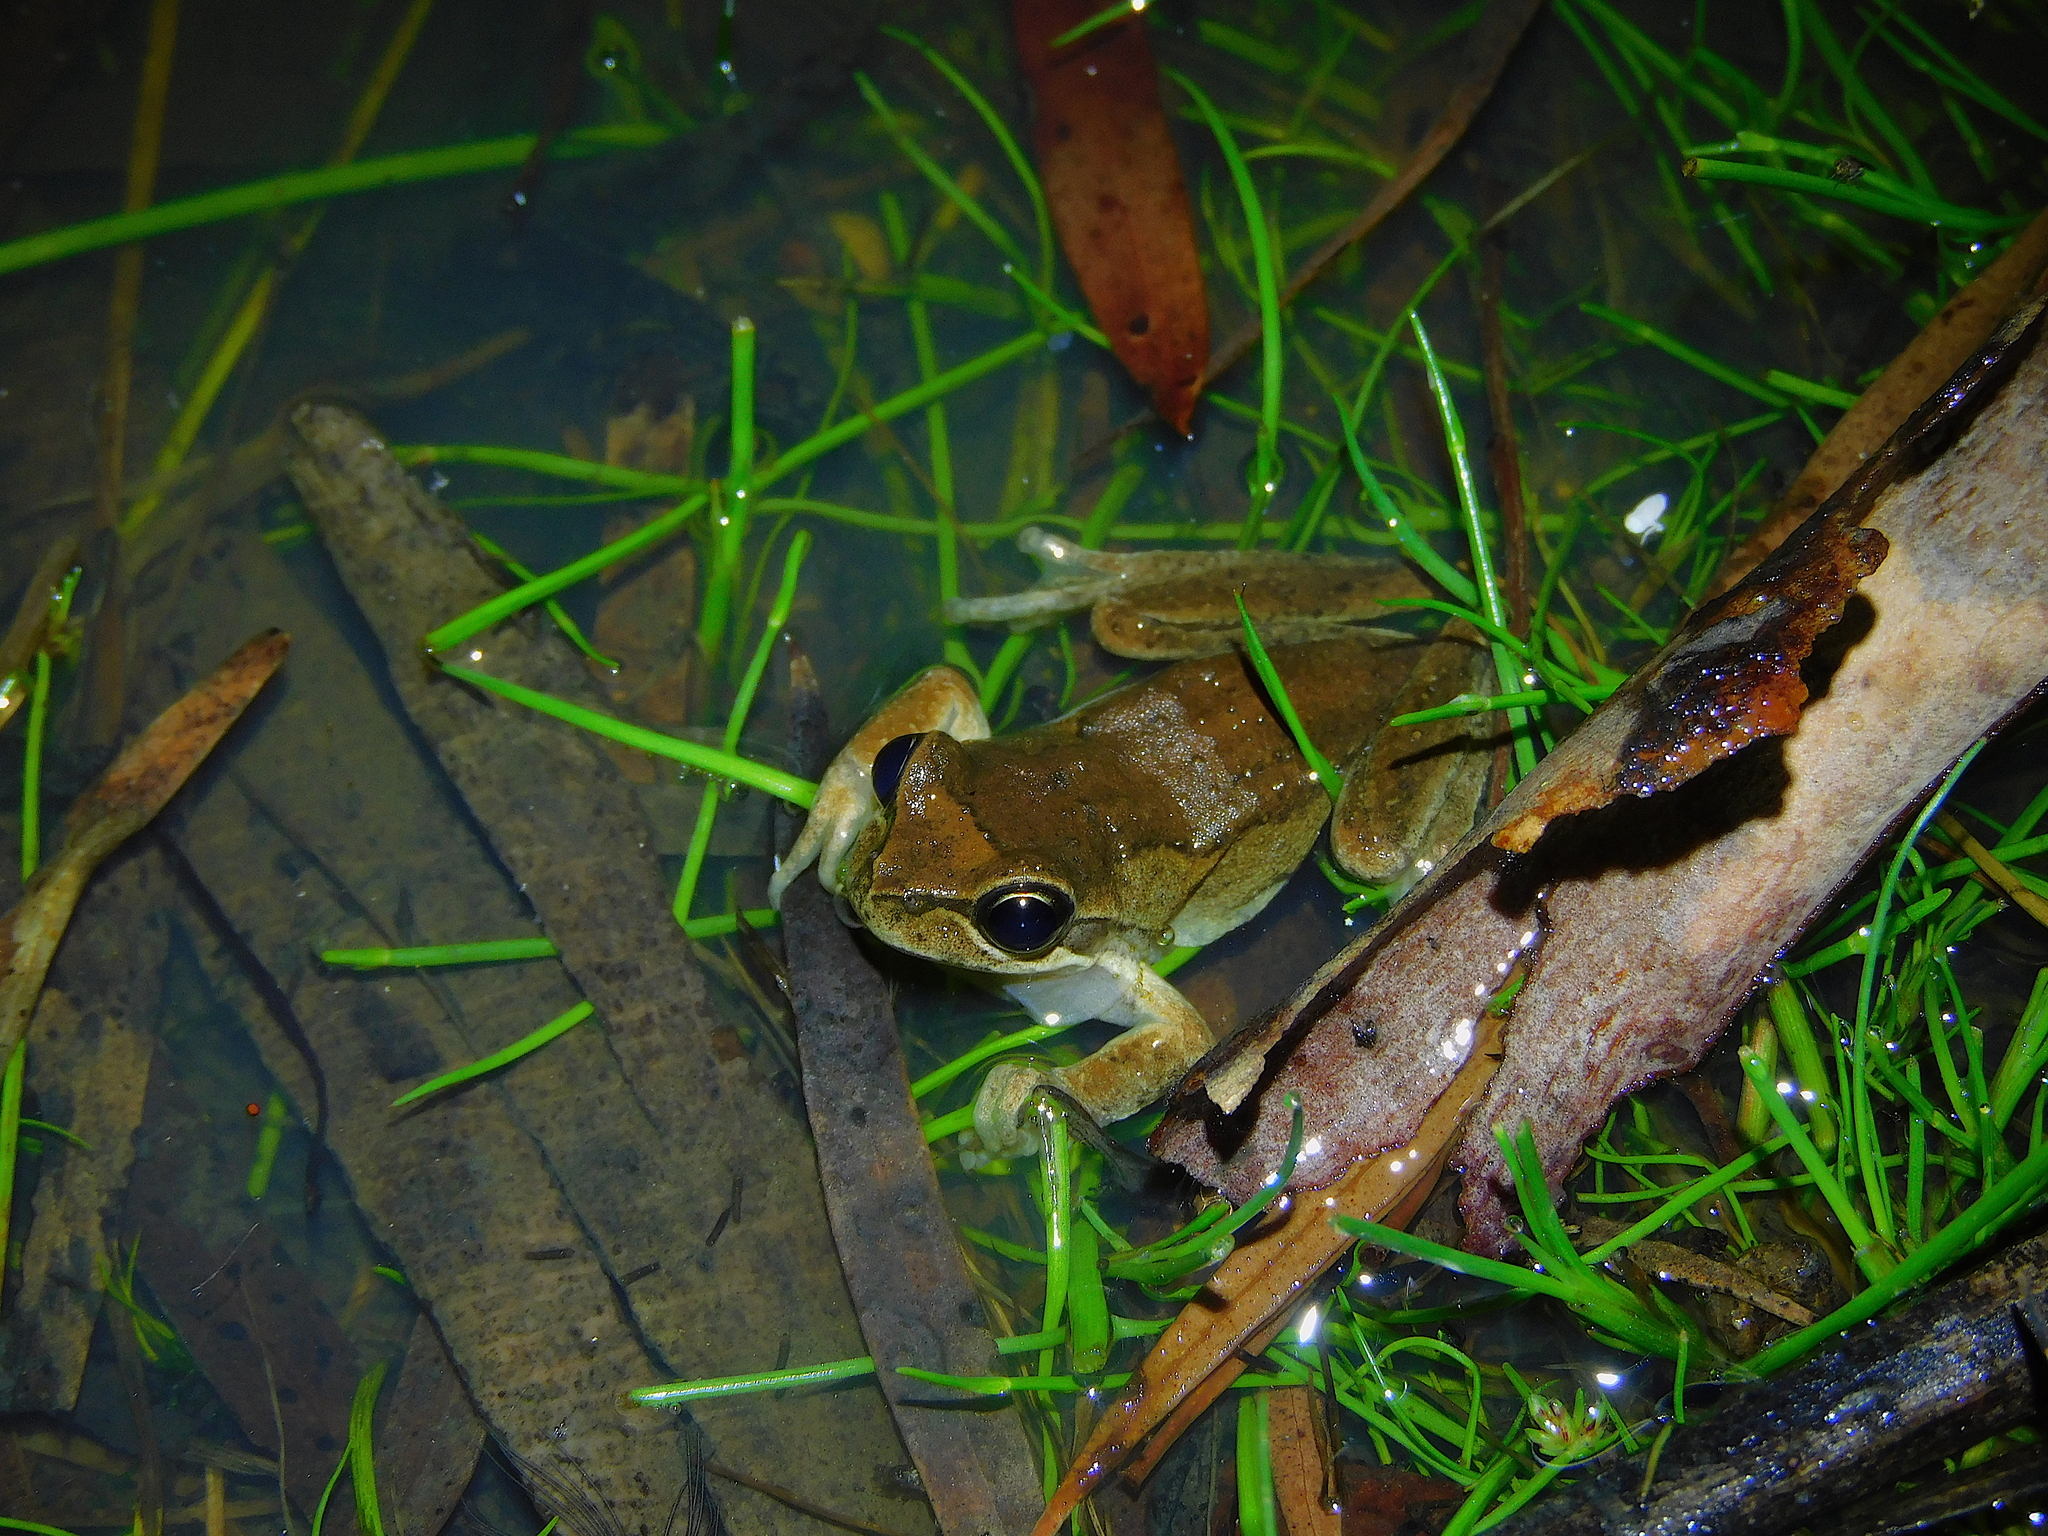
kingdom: Animalia
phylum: Chordata
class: Amphibia
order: Anura
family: Pelodryadidae
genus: Litoria
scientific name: Litoria ewingii
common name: Southern brown tree frog
